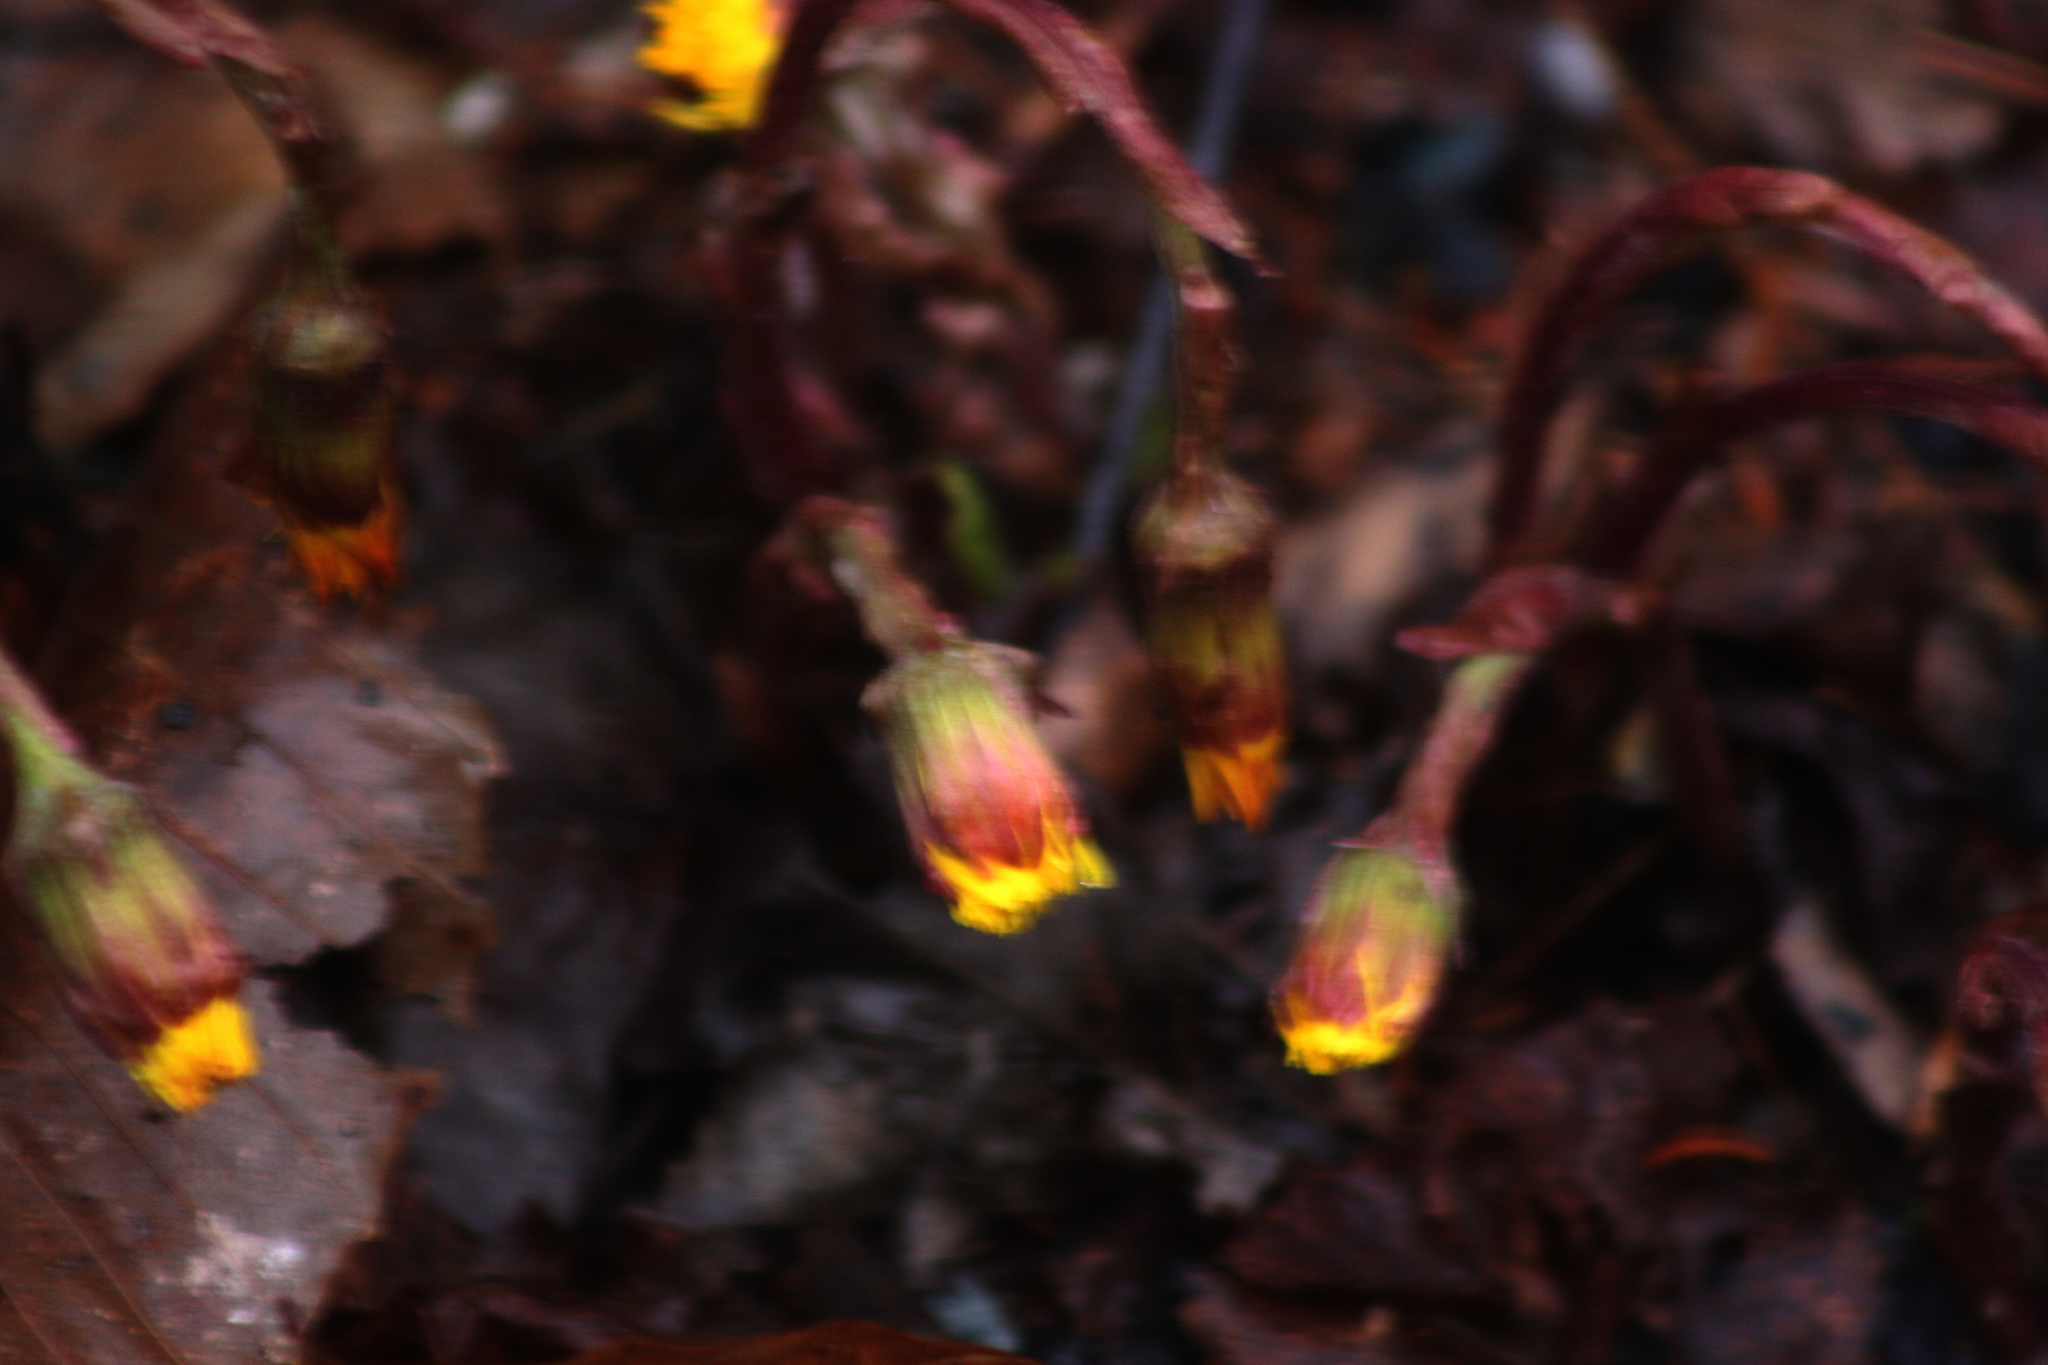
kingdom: Plantae
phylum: Tracheophyta
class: Magnoliopsida
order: Asterales
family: Asteraceae
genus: Tussilago
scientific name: Tussilago farfara
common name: Coltsfoot
